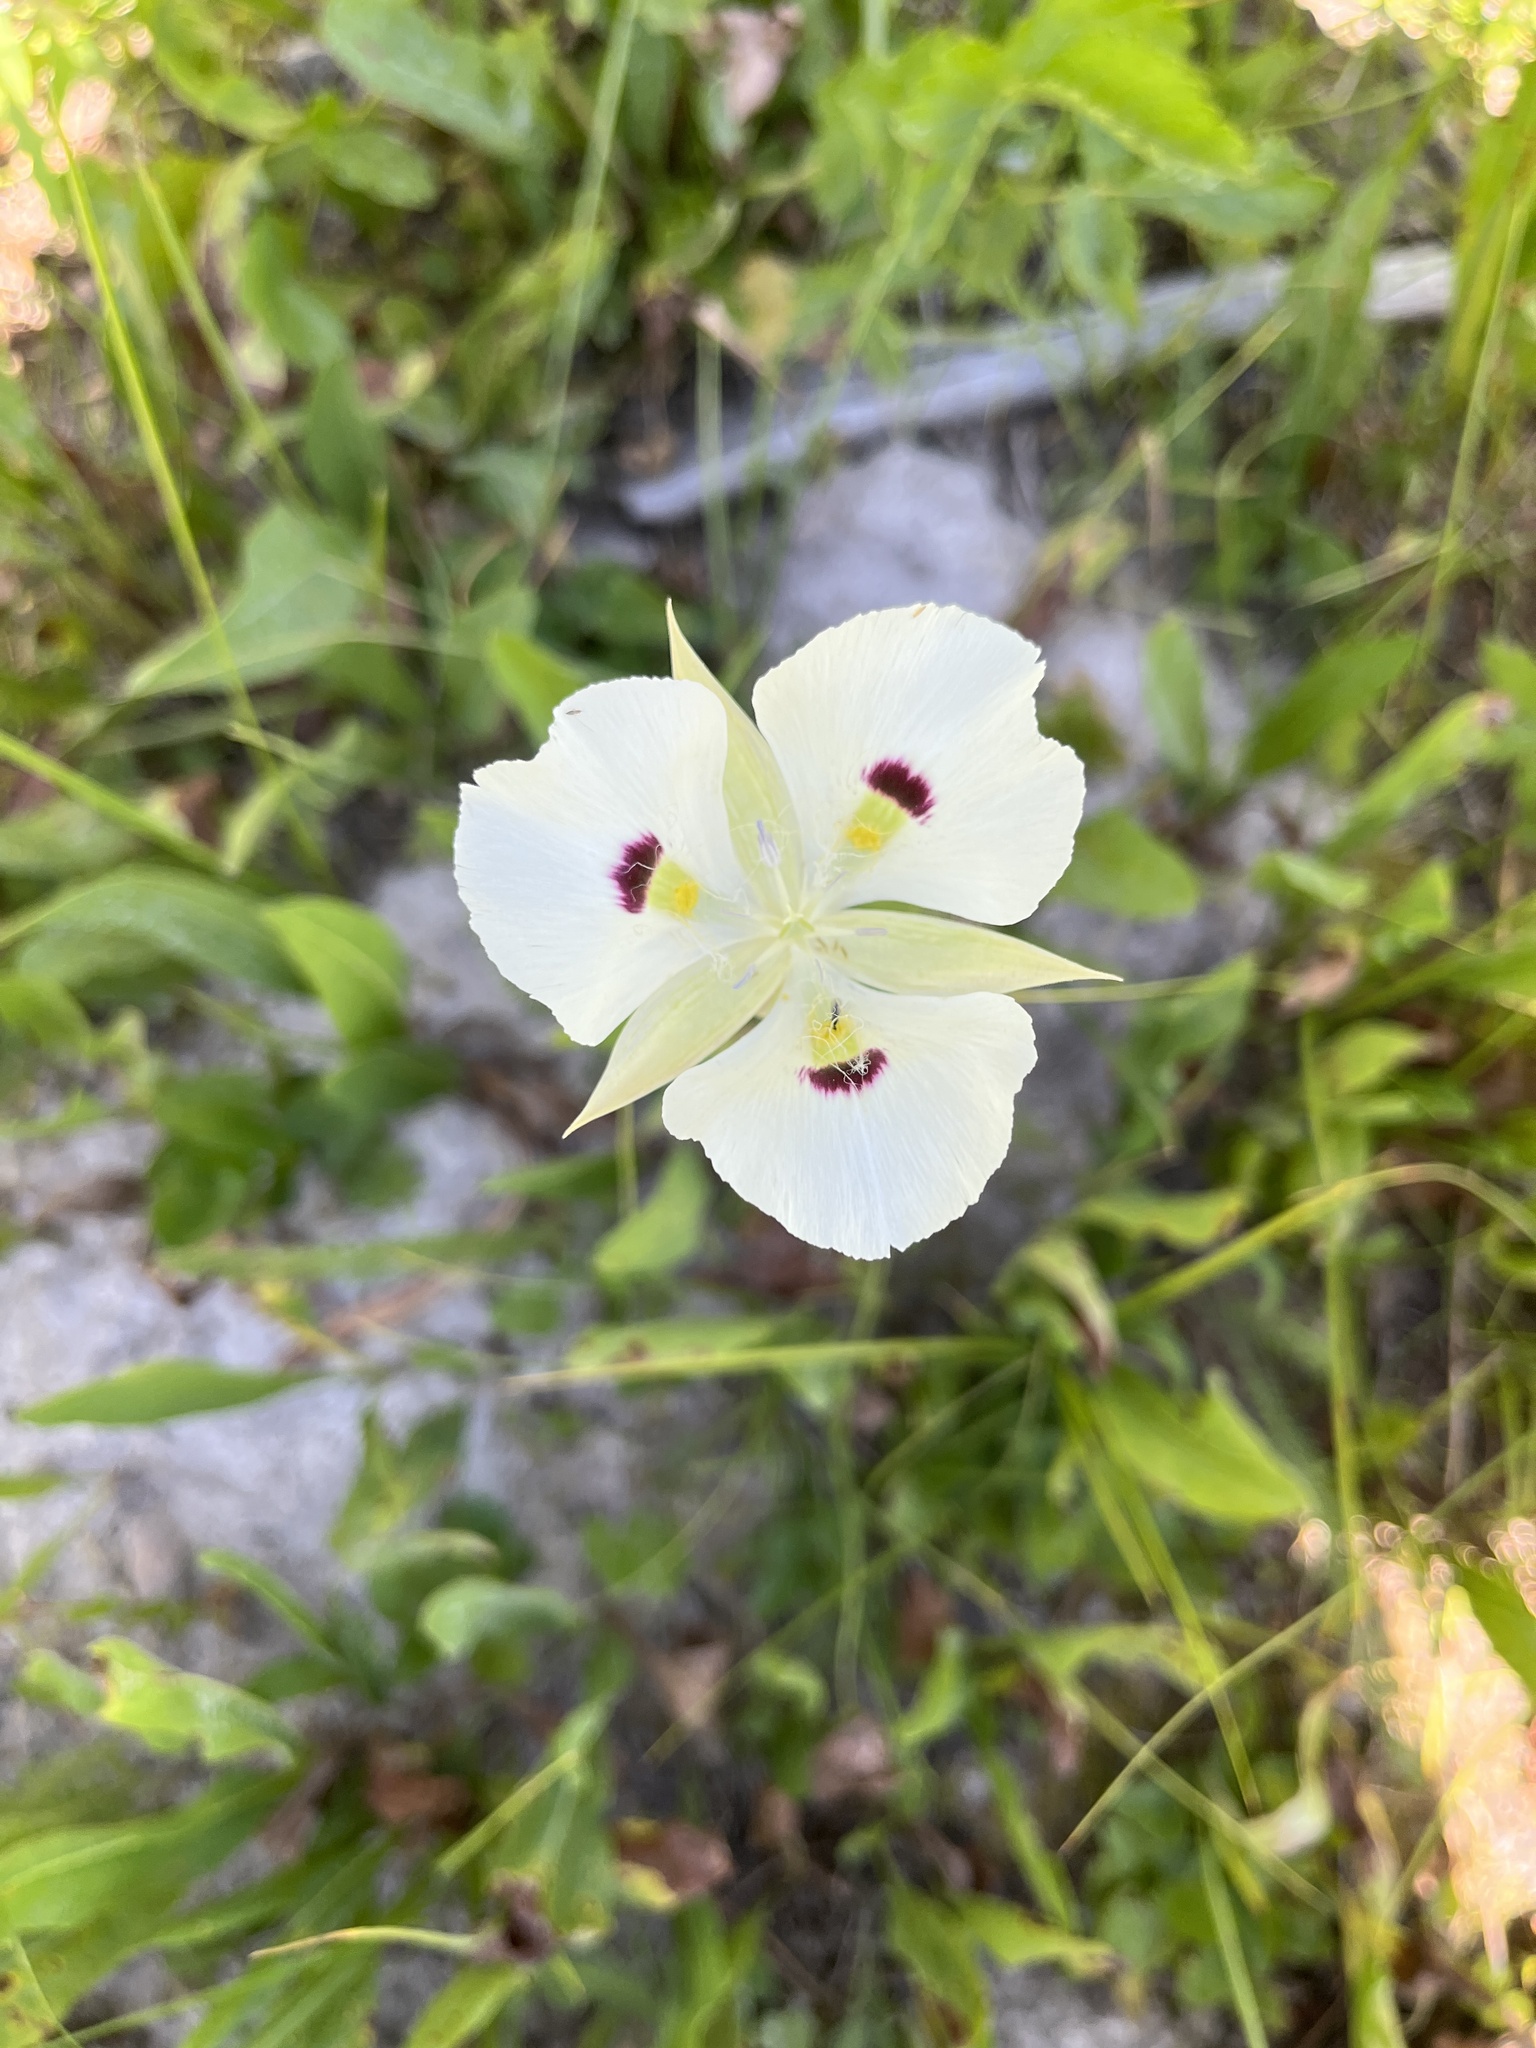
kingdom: Plantae
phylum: Tracheophyta
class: Liliopsida
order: Liliales
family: Liliaceae
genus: Calochortus
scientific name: Calochortus eurycarpus
